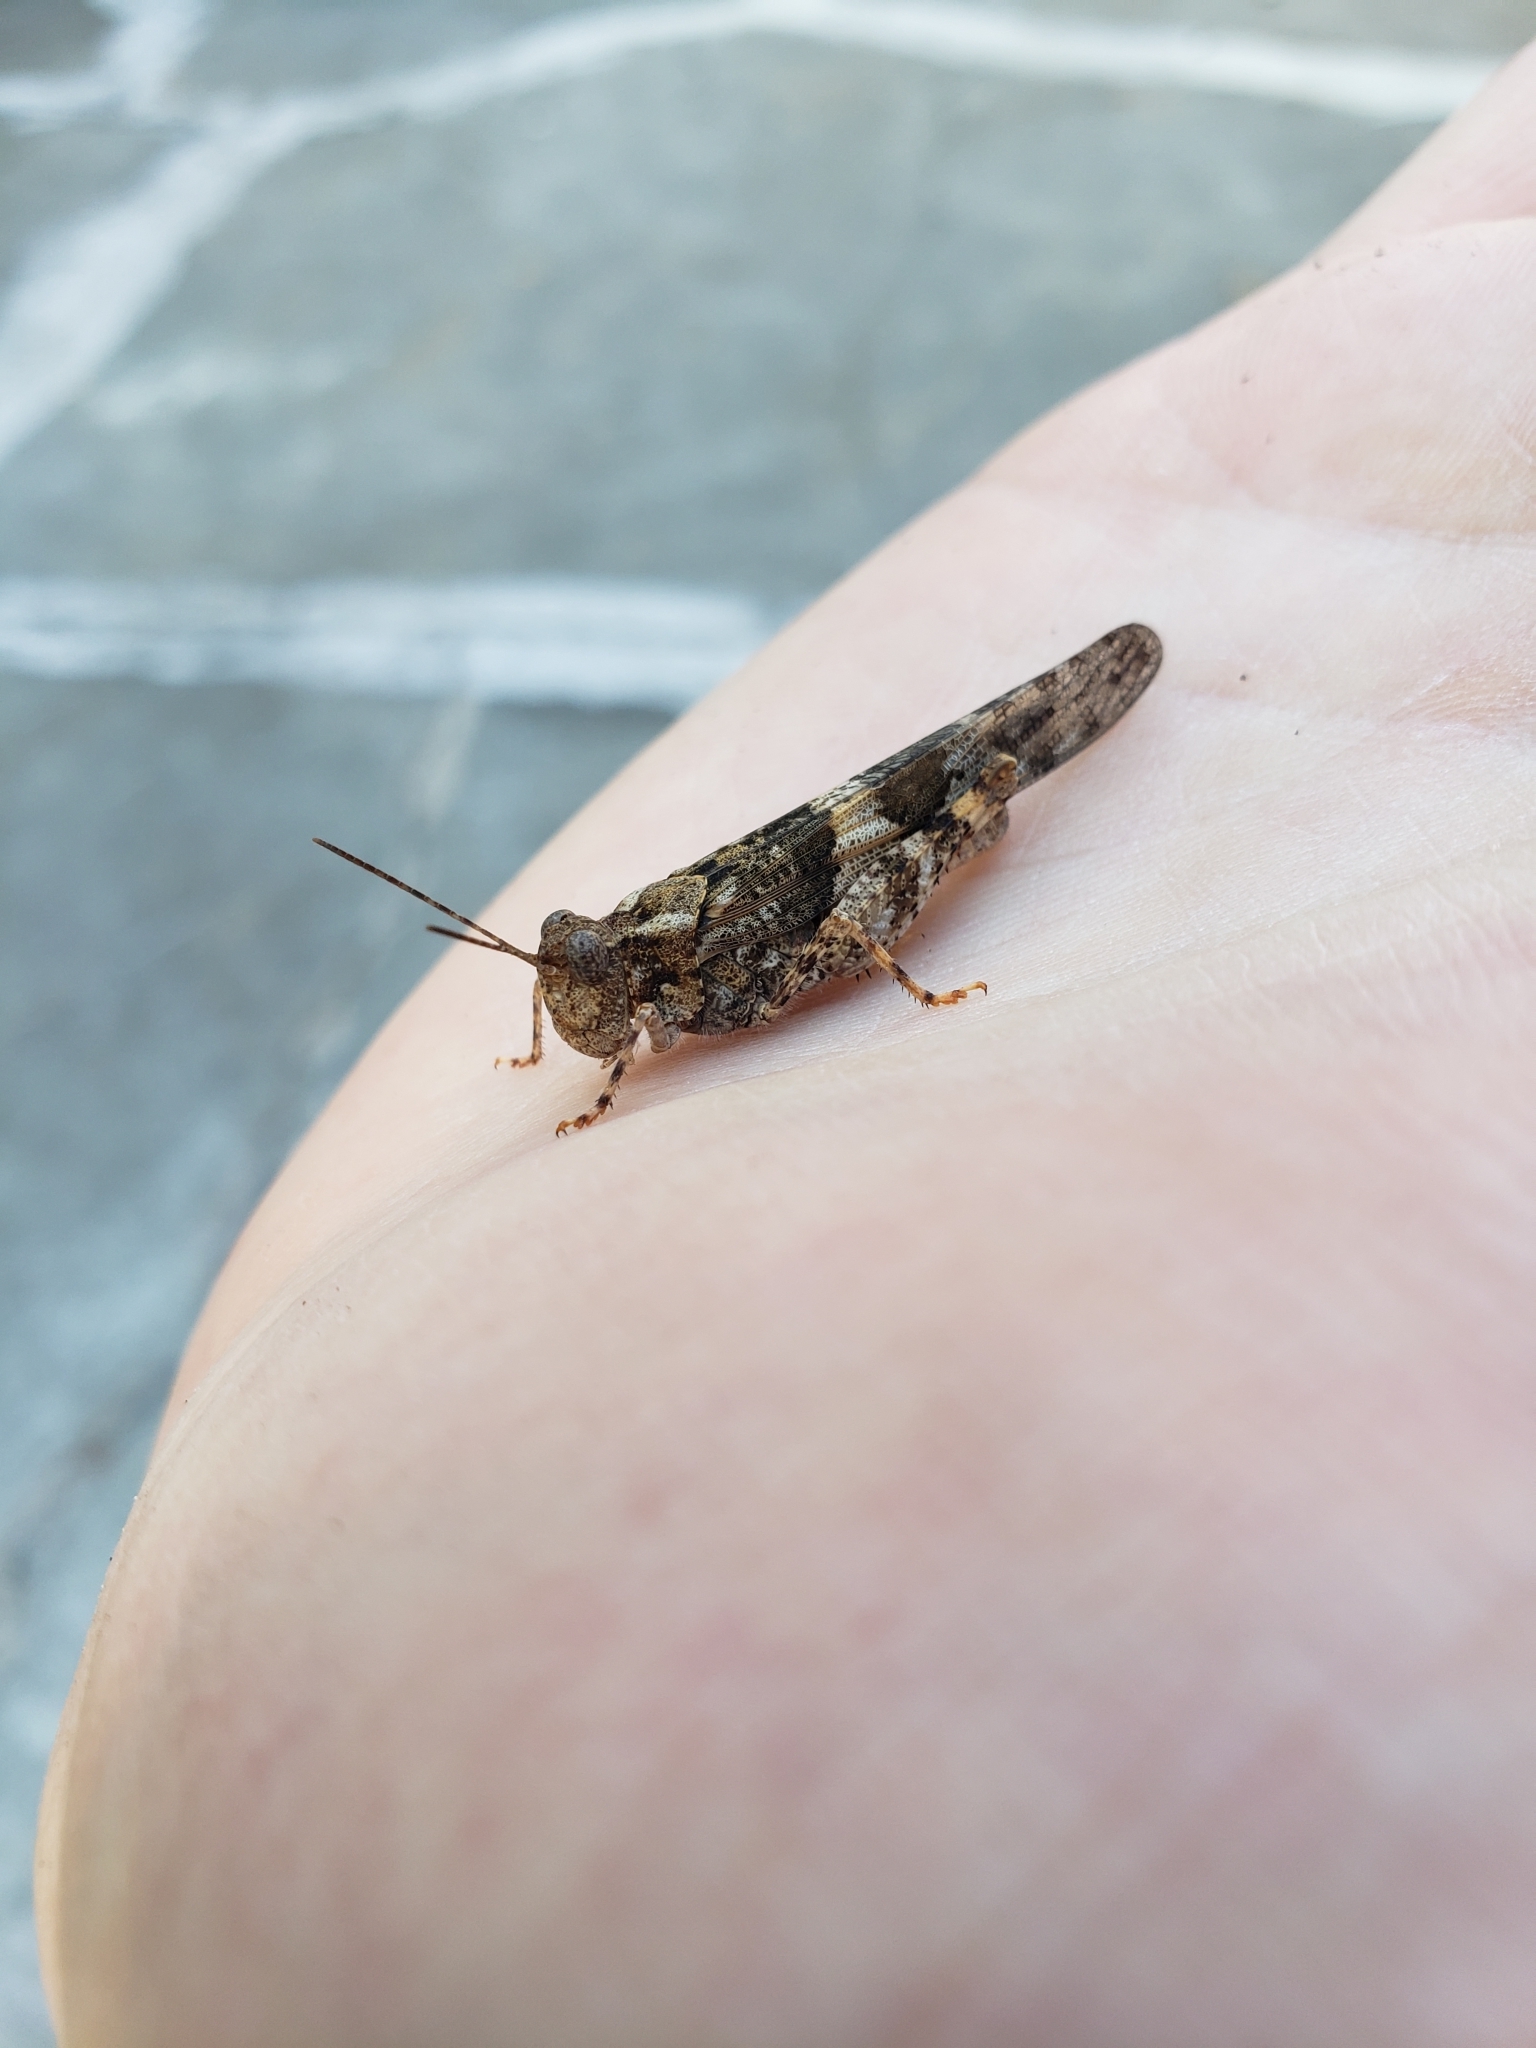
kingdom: Animalia
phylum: Arthropoda
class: Insecta
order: Orthoptera
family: Acrididae
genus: Trimerotropis
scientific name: Trimerotropis pallidipennis
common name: Pallid-winged grasshopper
